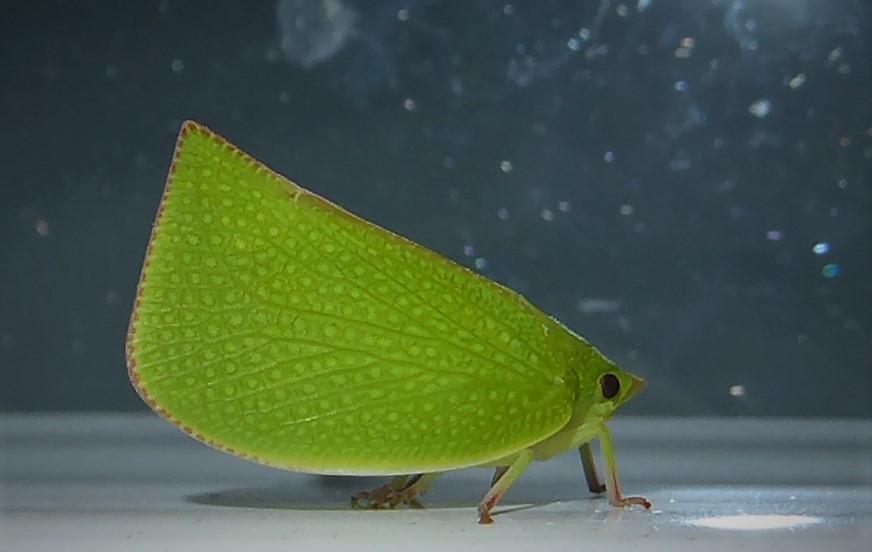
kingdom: Animalia
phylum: Arthropoda
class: Insecta
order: Hemiptera
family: Flatidae
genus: Siphanta
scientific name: Siphanta acuta
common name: Torpedo bug
